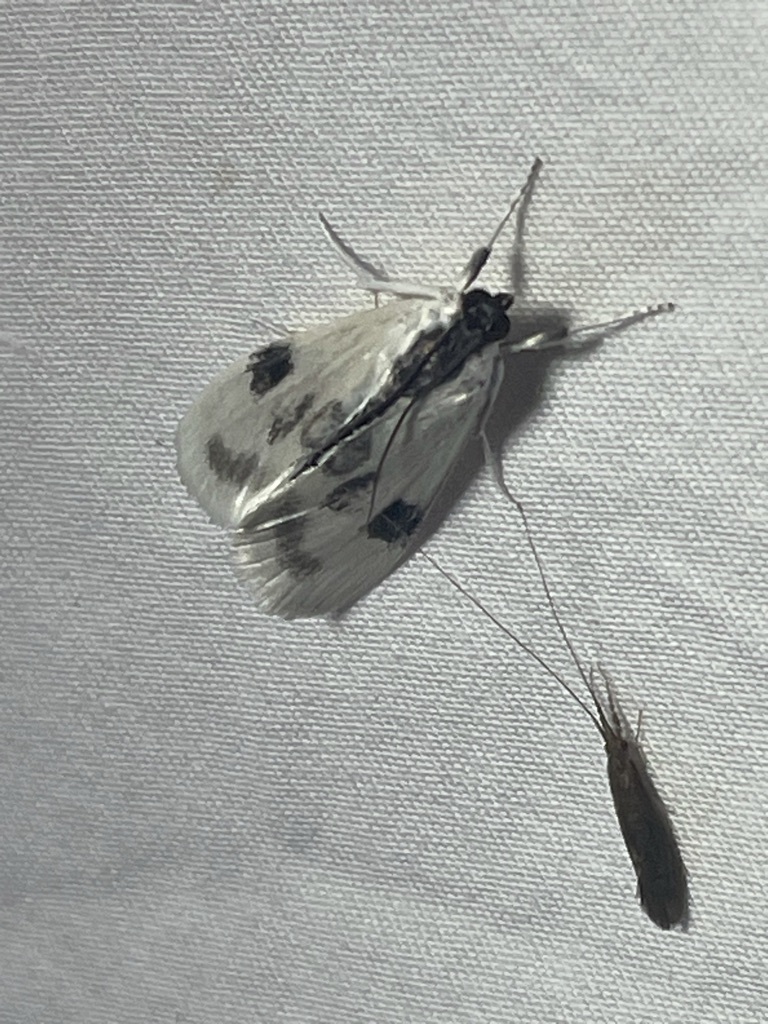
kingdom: Animalia
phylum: Arthropoda
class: Insecta
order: Lepidoptera
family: Crambidae
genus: Cliniodes
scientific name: Cliniodes
